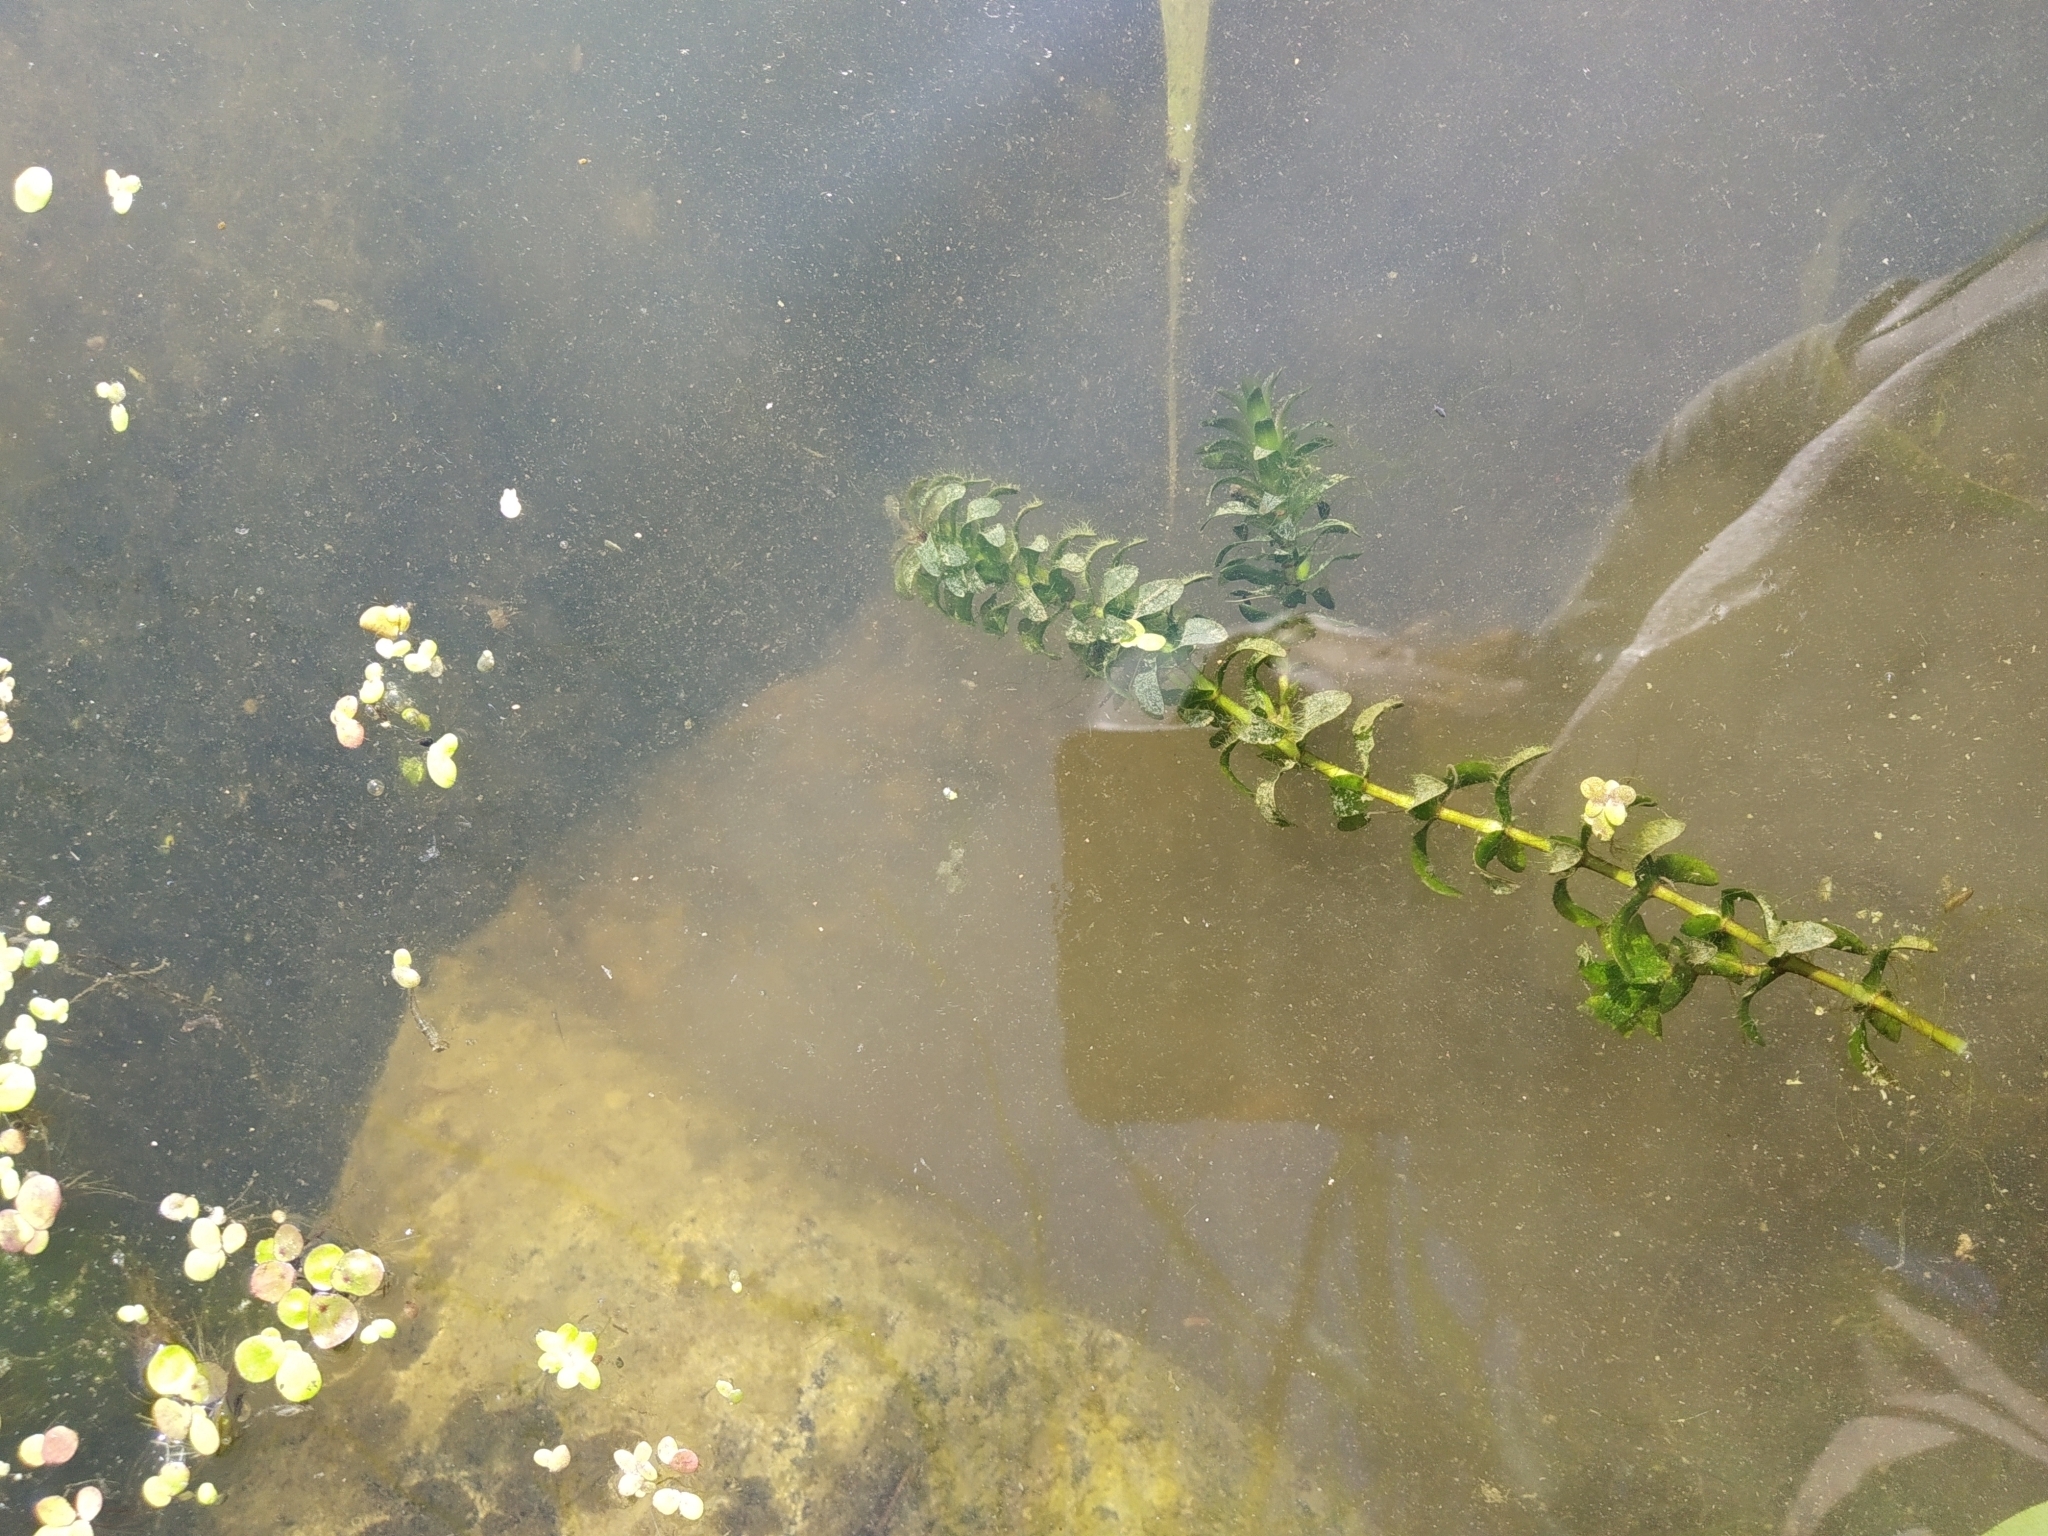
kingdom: Plantae
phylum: Tracheophyta
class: Liliopsida
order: Alismatales
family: Hydrocharitaceae
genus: Elodea
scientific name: Elodea canadensis
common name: Canadian waterweed
